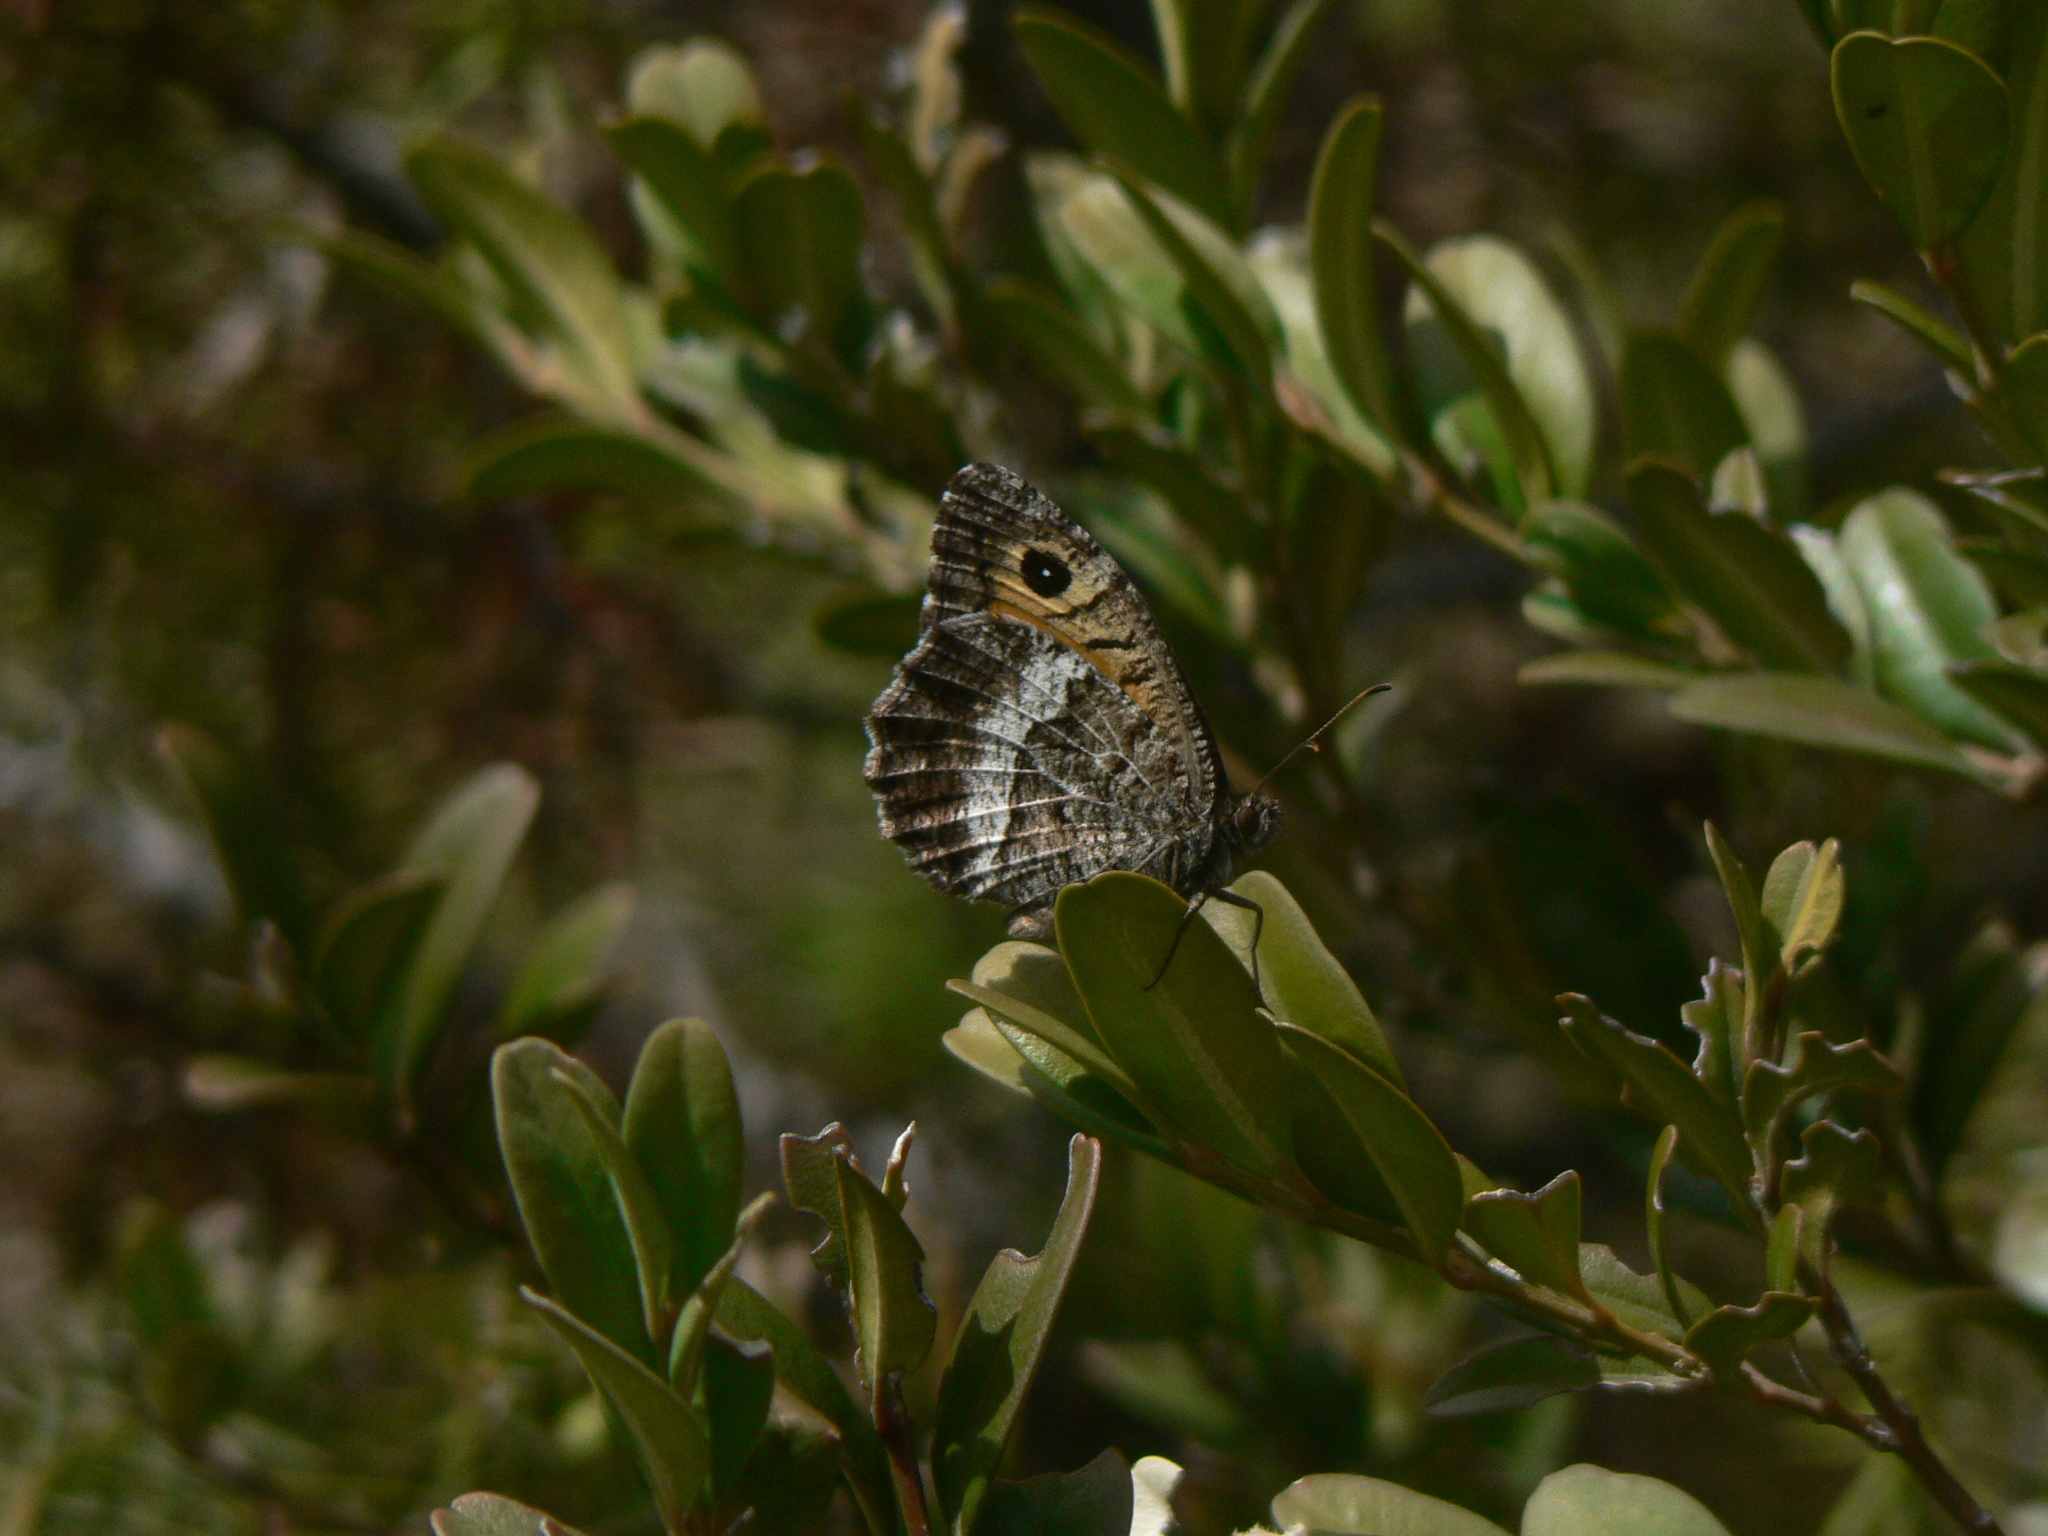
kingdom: Animalia
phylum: Arthropoda
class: Insecta
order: Lepidoptera
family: Nymphalidae
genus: Arethusana
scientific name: Arethusana arethusa
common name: False grayling
